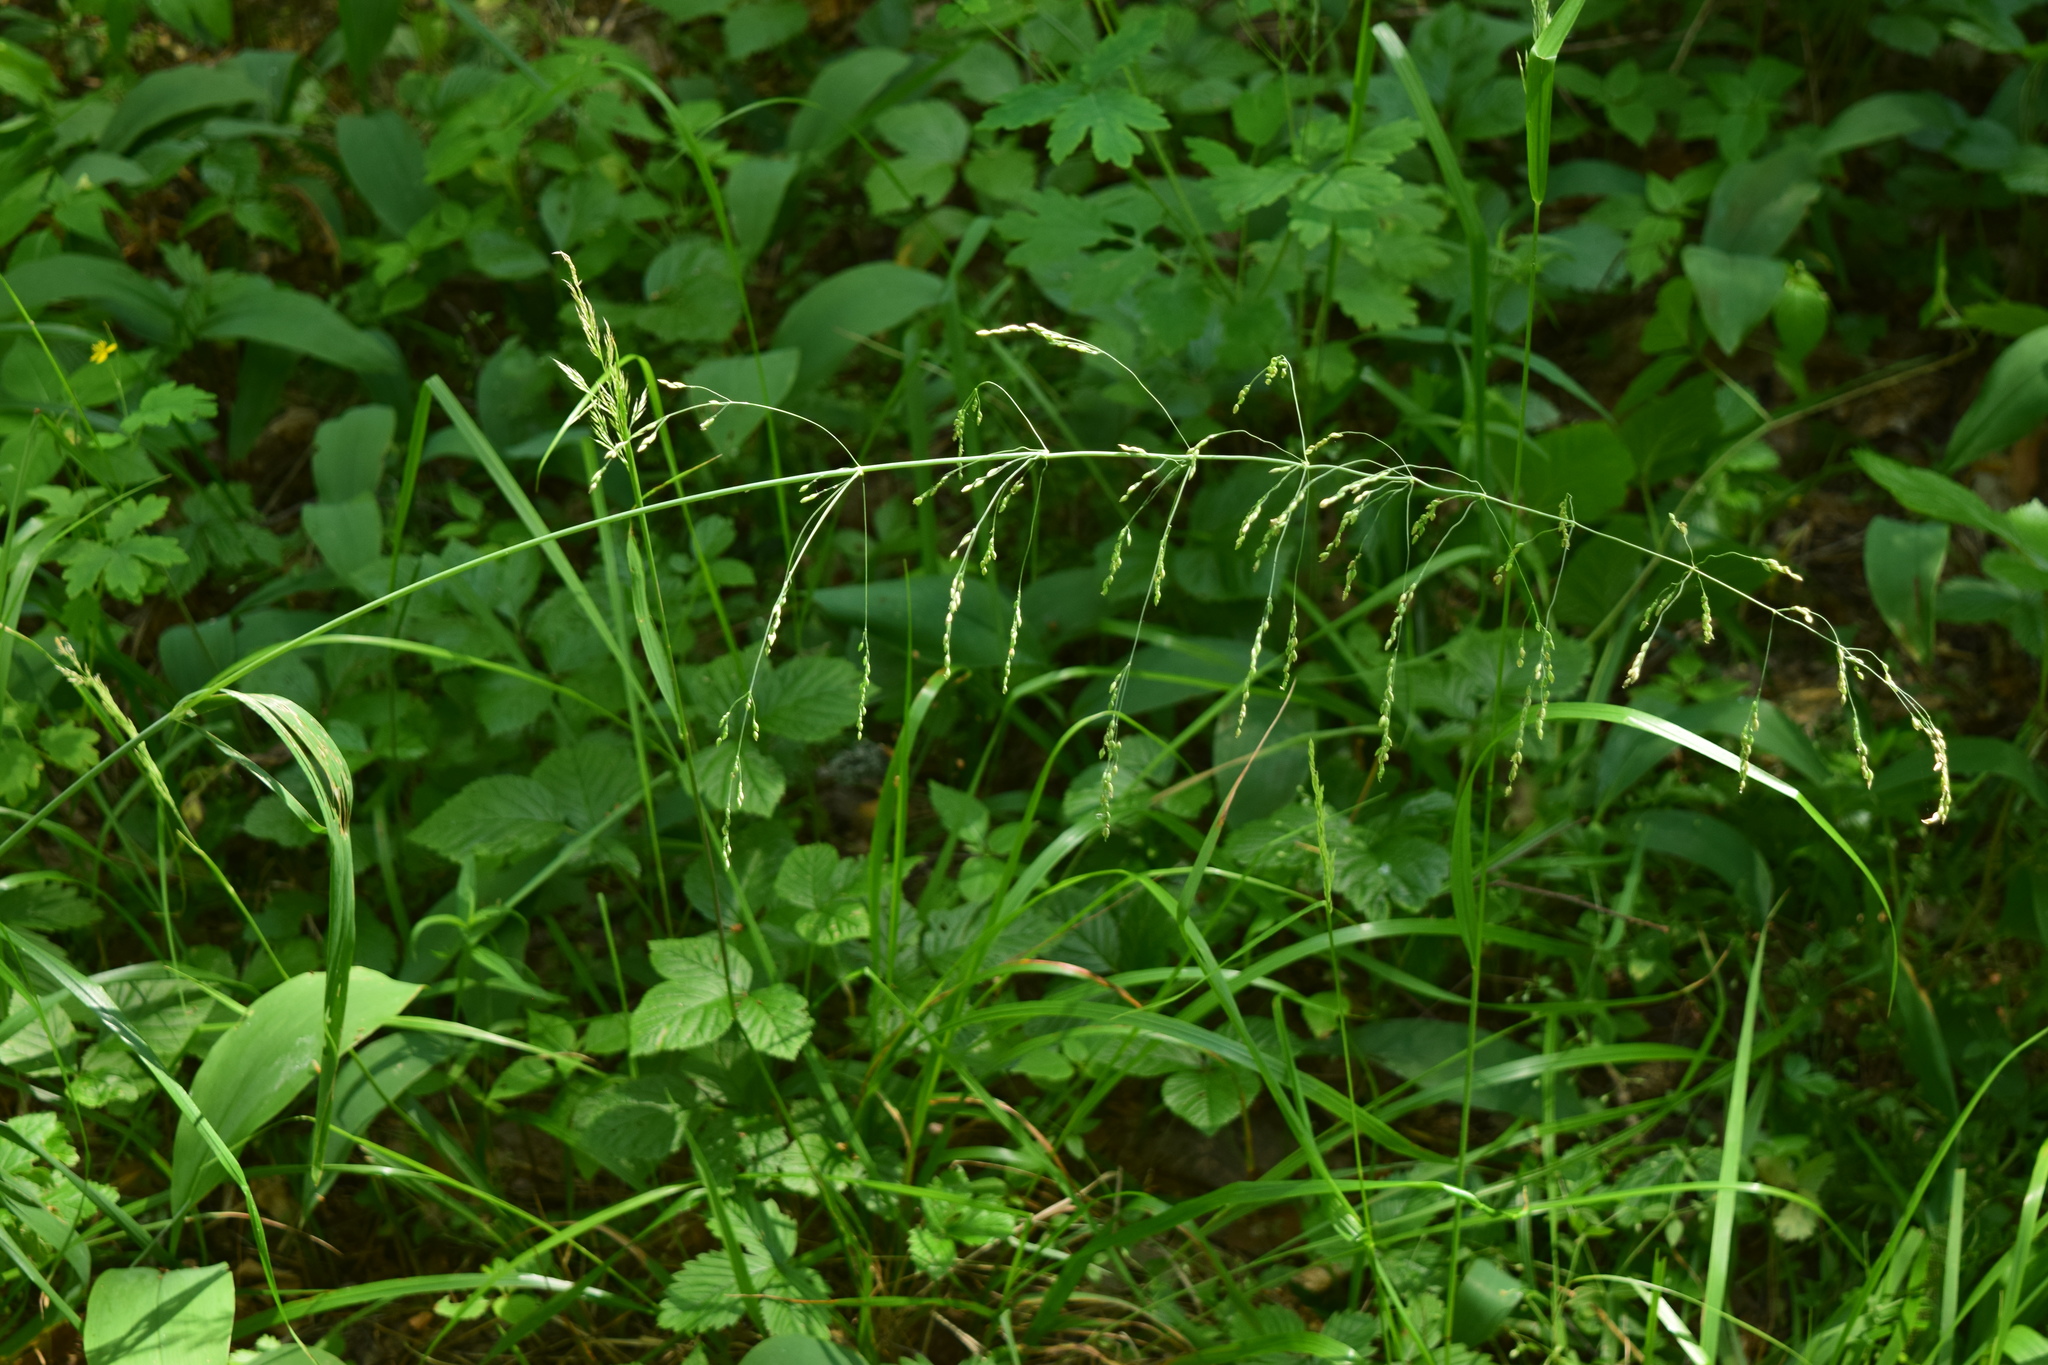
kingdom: Plantae
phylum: Tracheophyta
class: Liliopsida
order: Poales
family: Poaceae
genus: Milium
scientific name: Milium effusum
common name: Wood millet
